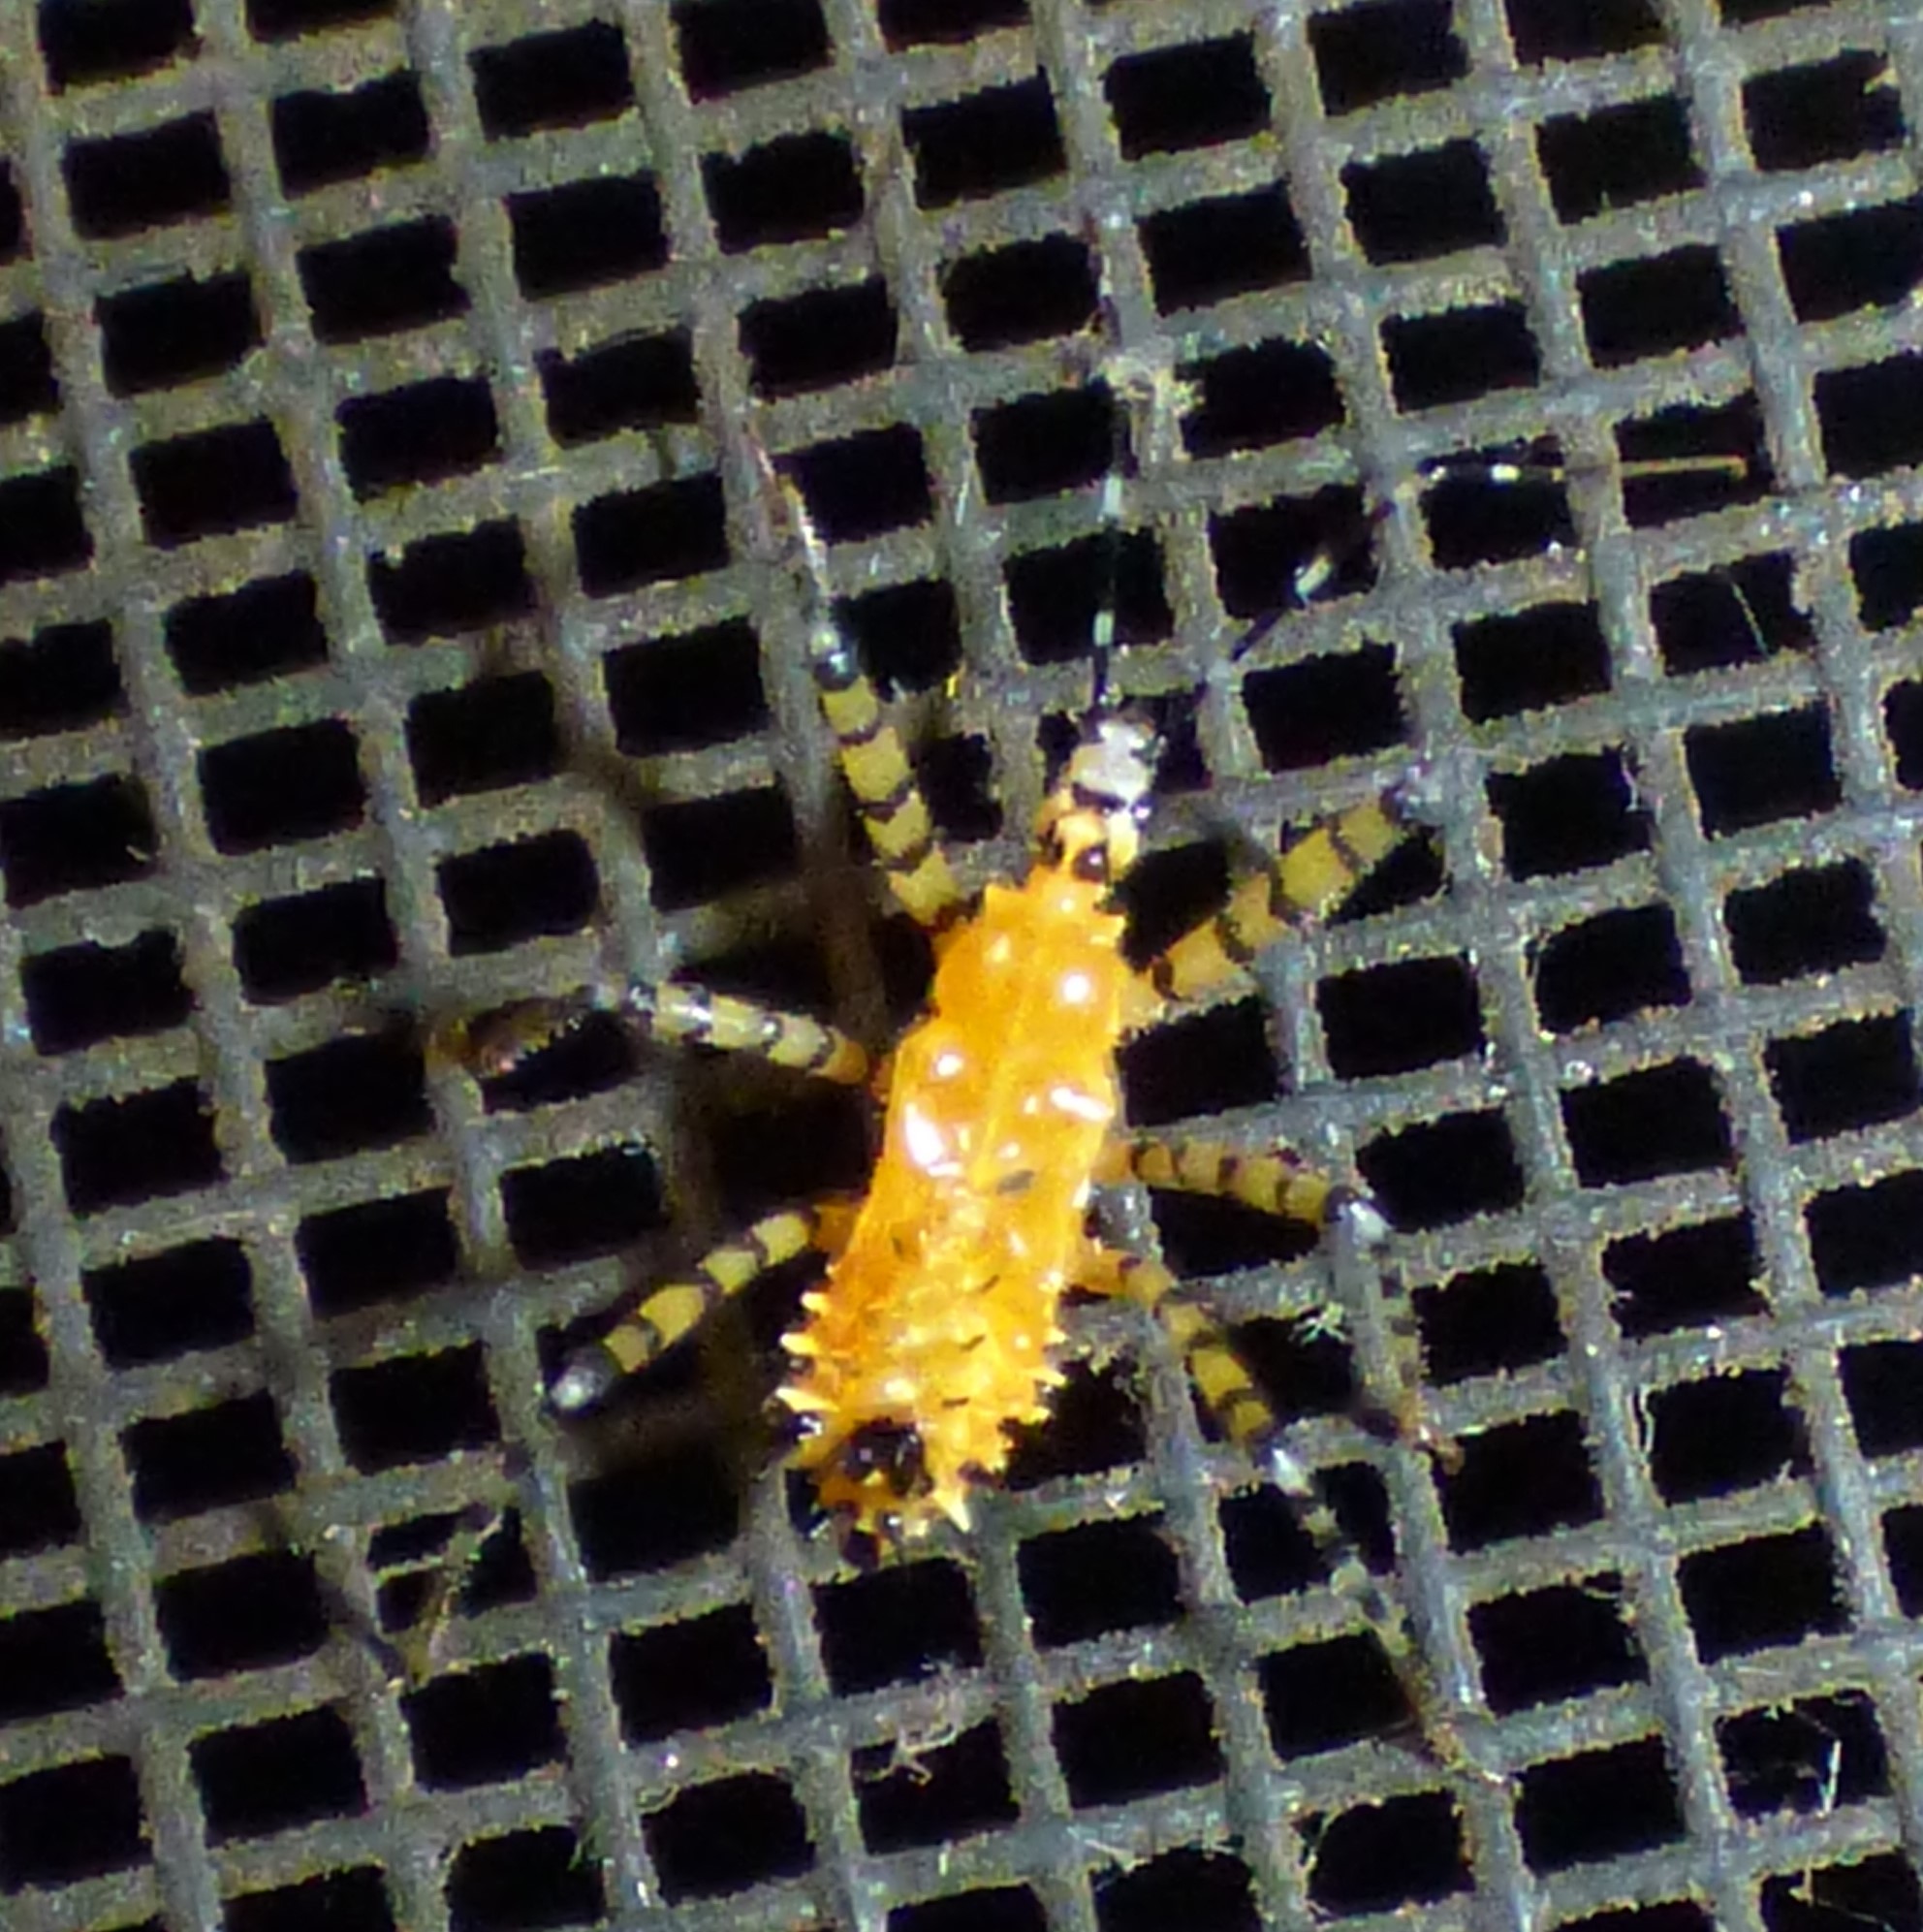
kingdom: Animalia
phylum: Arthropoda
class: Insecta
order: Hemiptera
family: Reduviidae
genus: Pselliopus
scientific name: Pselliopus barberi
